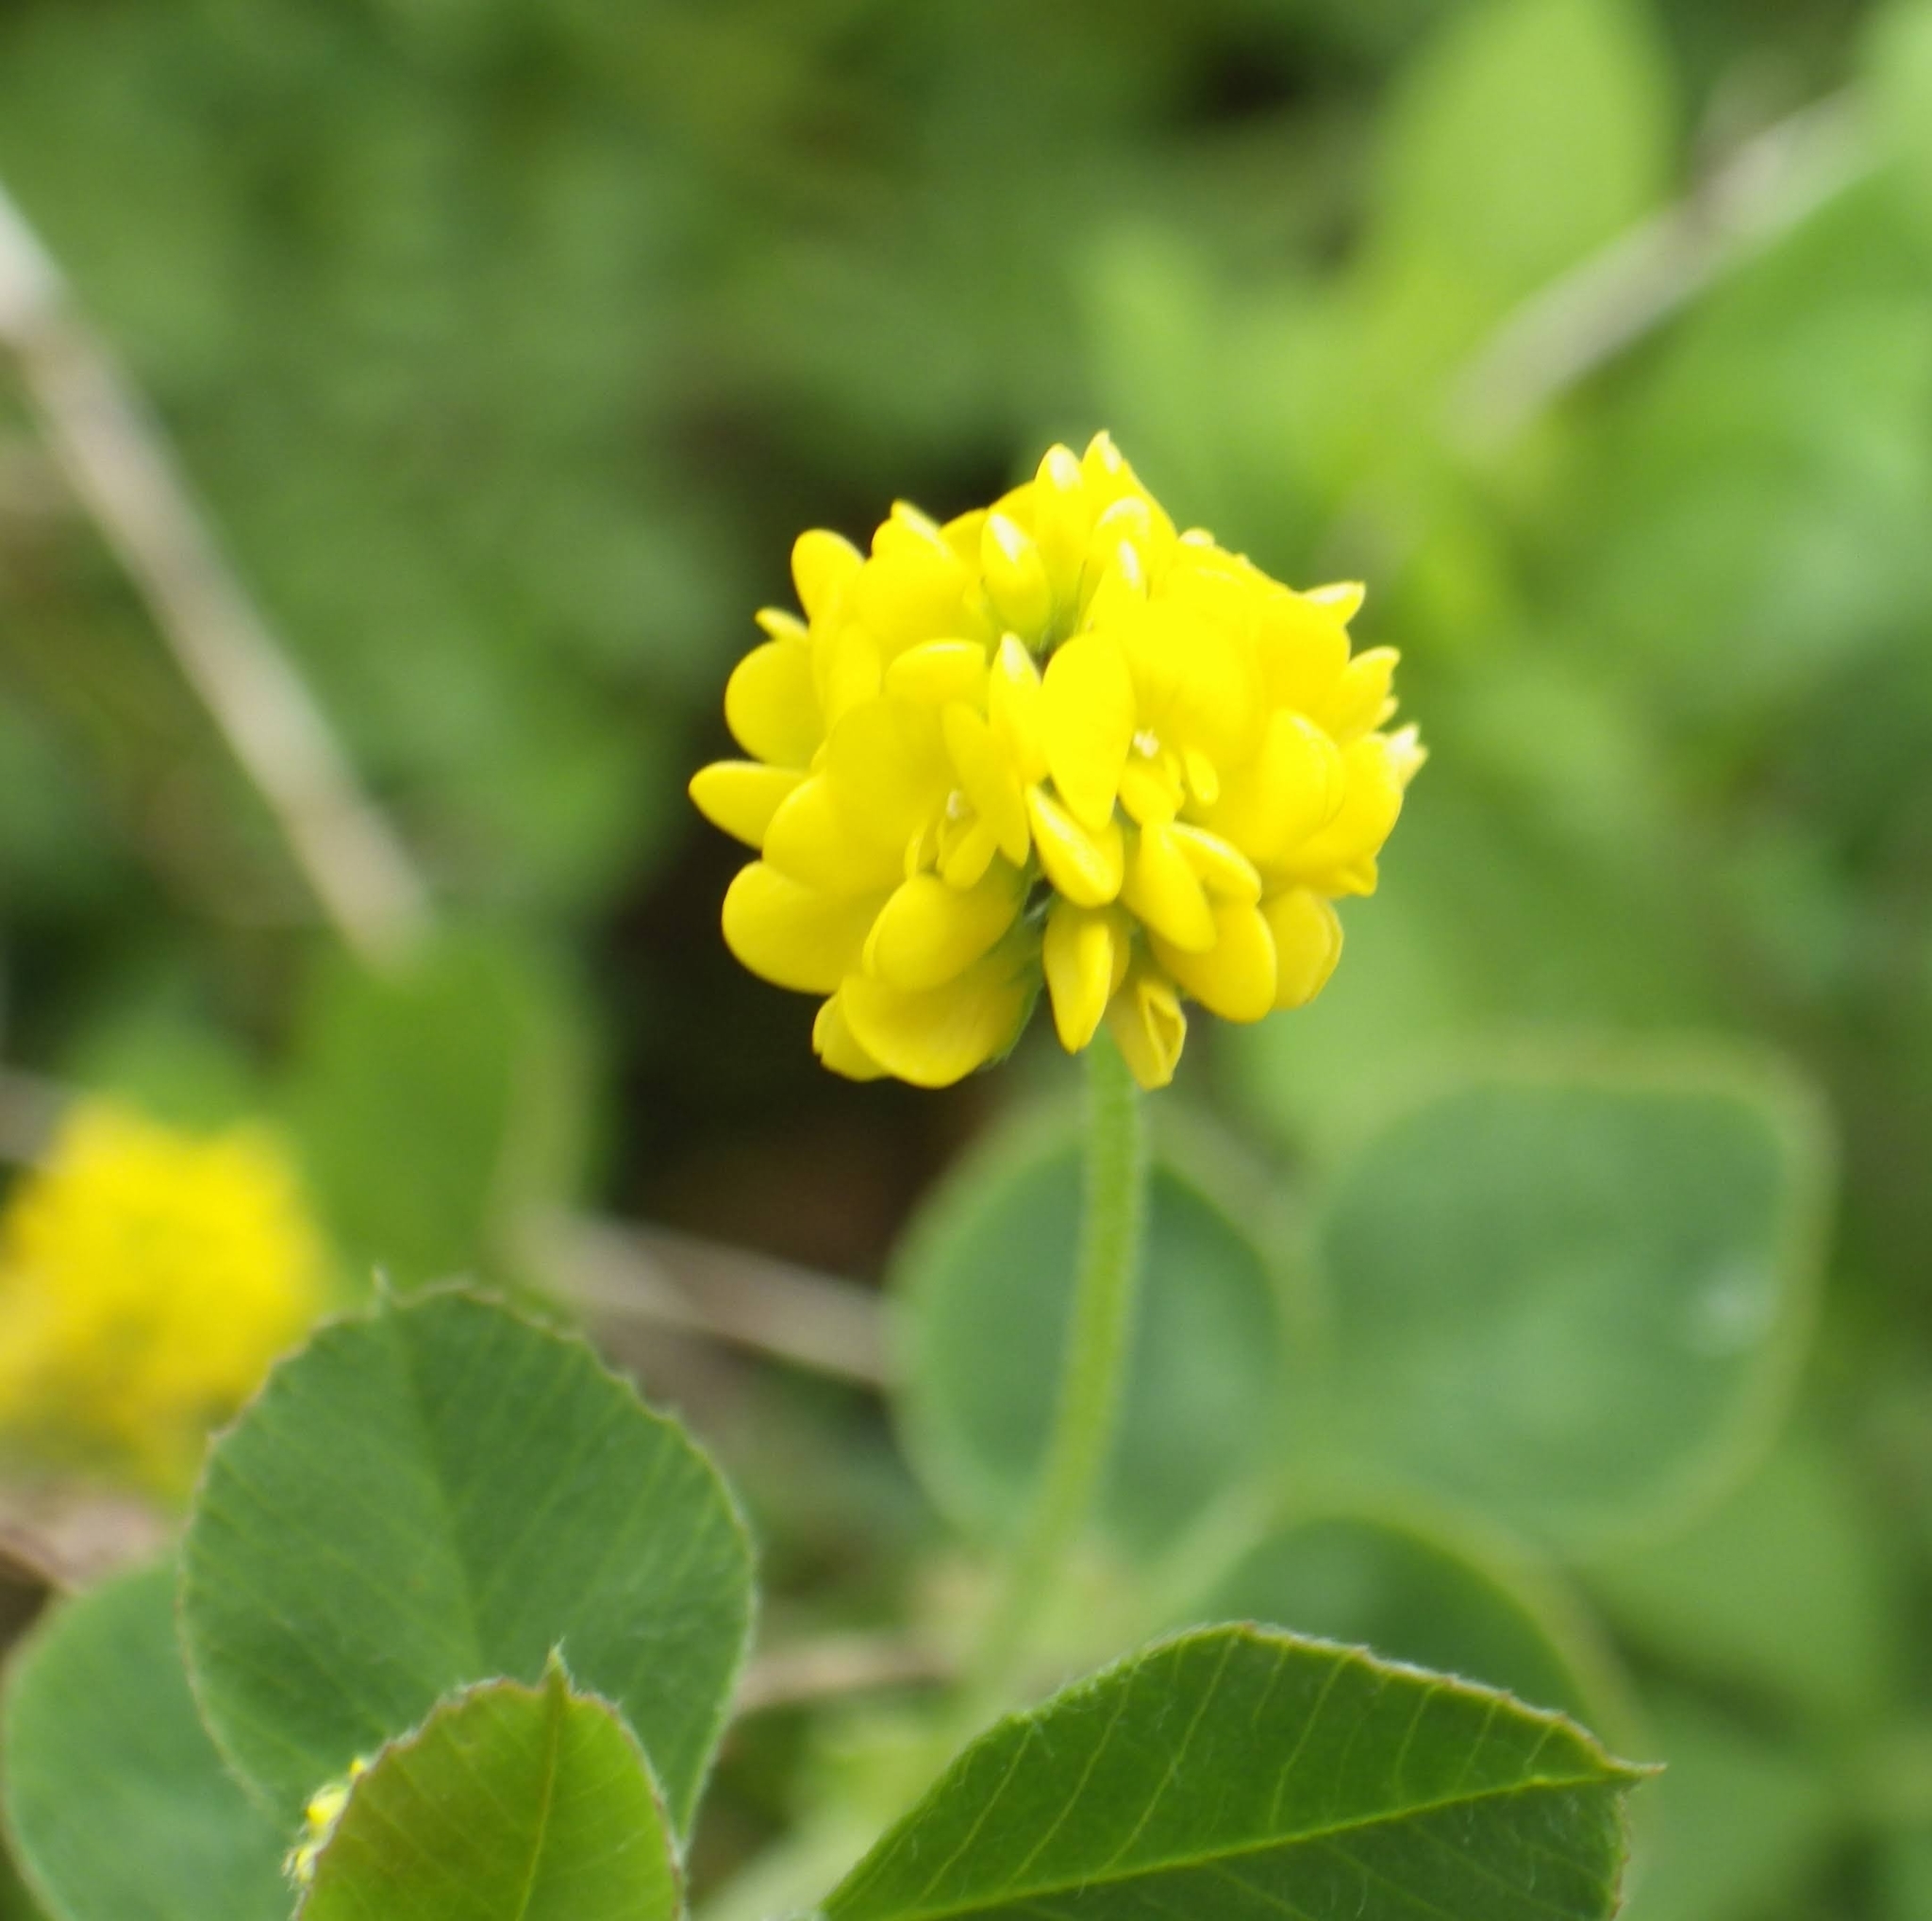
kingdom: Plantae
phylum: Tracheophyta
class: Magnoliopsida
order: Fabales
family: Fabaceae
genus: Medicago
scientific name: Medicago lupulina
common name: Black medick
